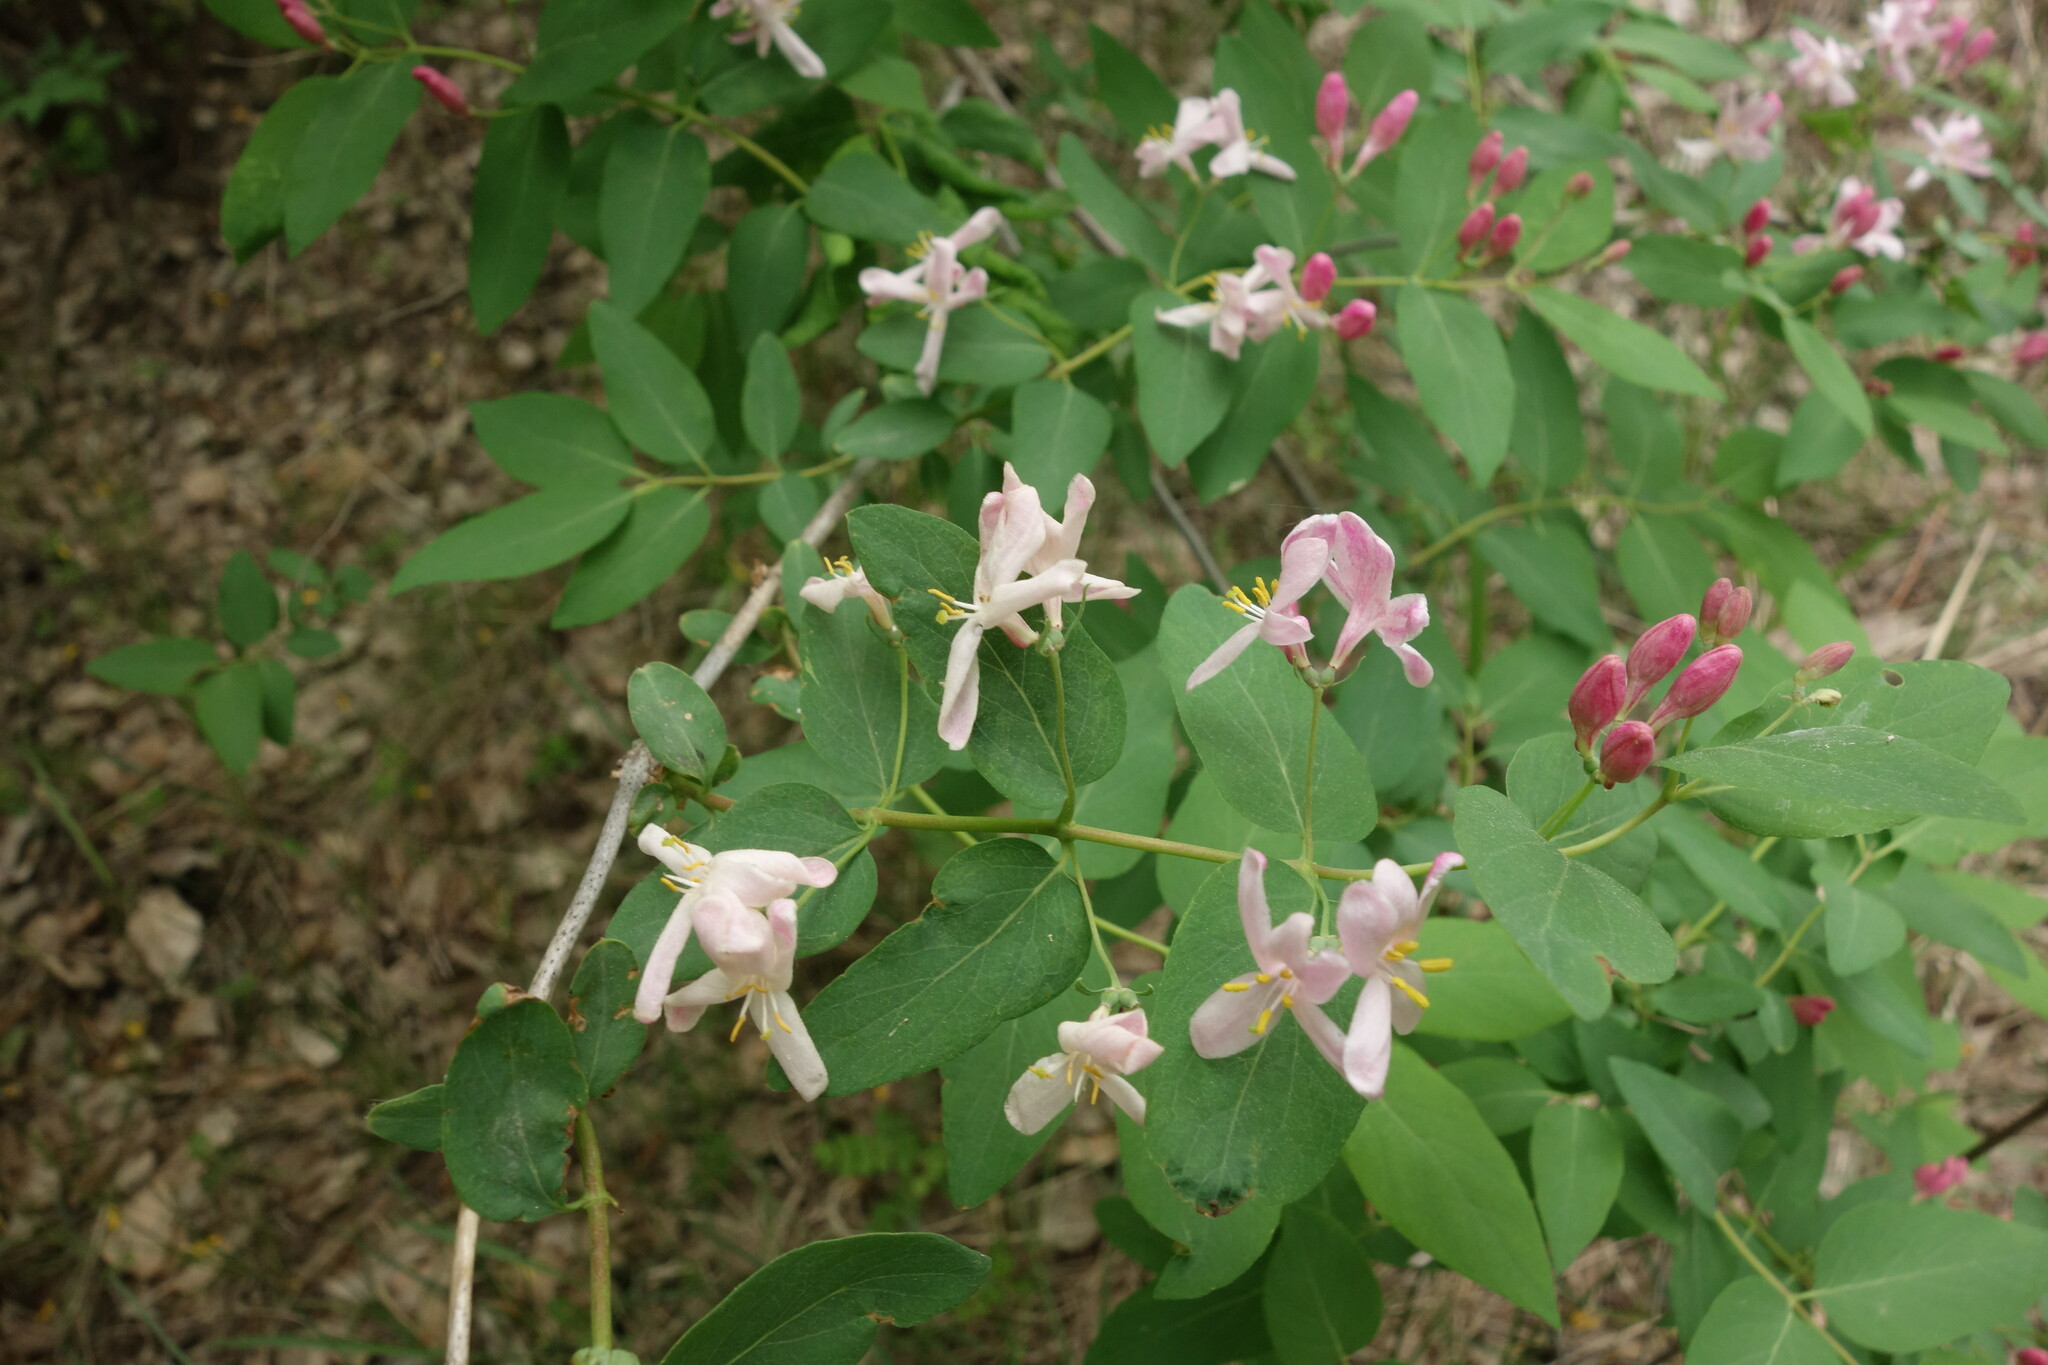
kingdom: Plantae
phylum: Tracheophyta
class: Magnoliopsida
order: Dipsacales
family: Caprifoliaceae
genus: Lonicera
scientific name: Lonicera tatarica
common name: Tatarian honeysuckle
